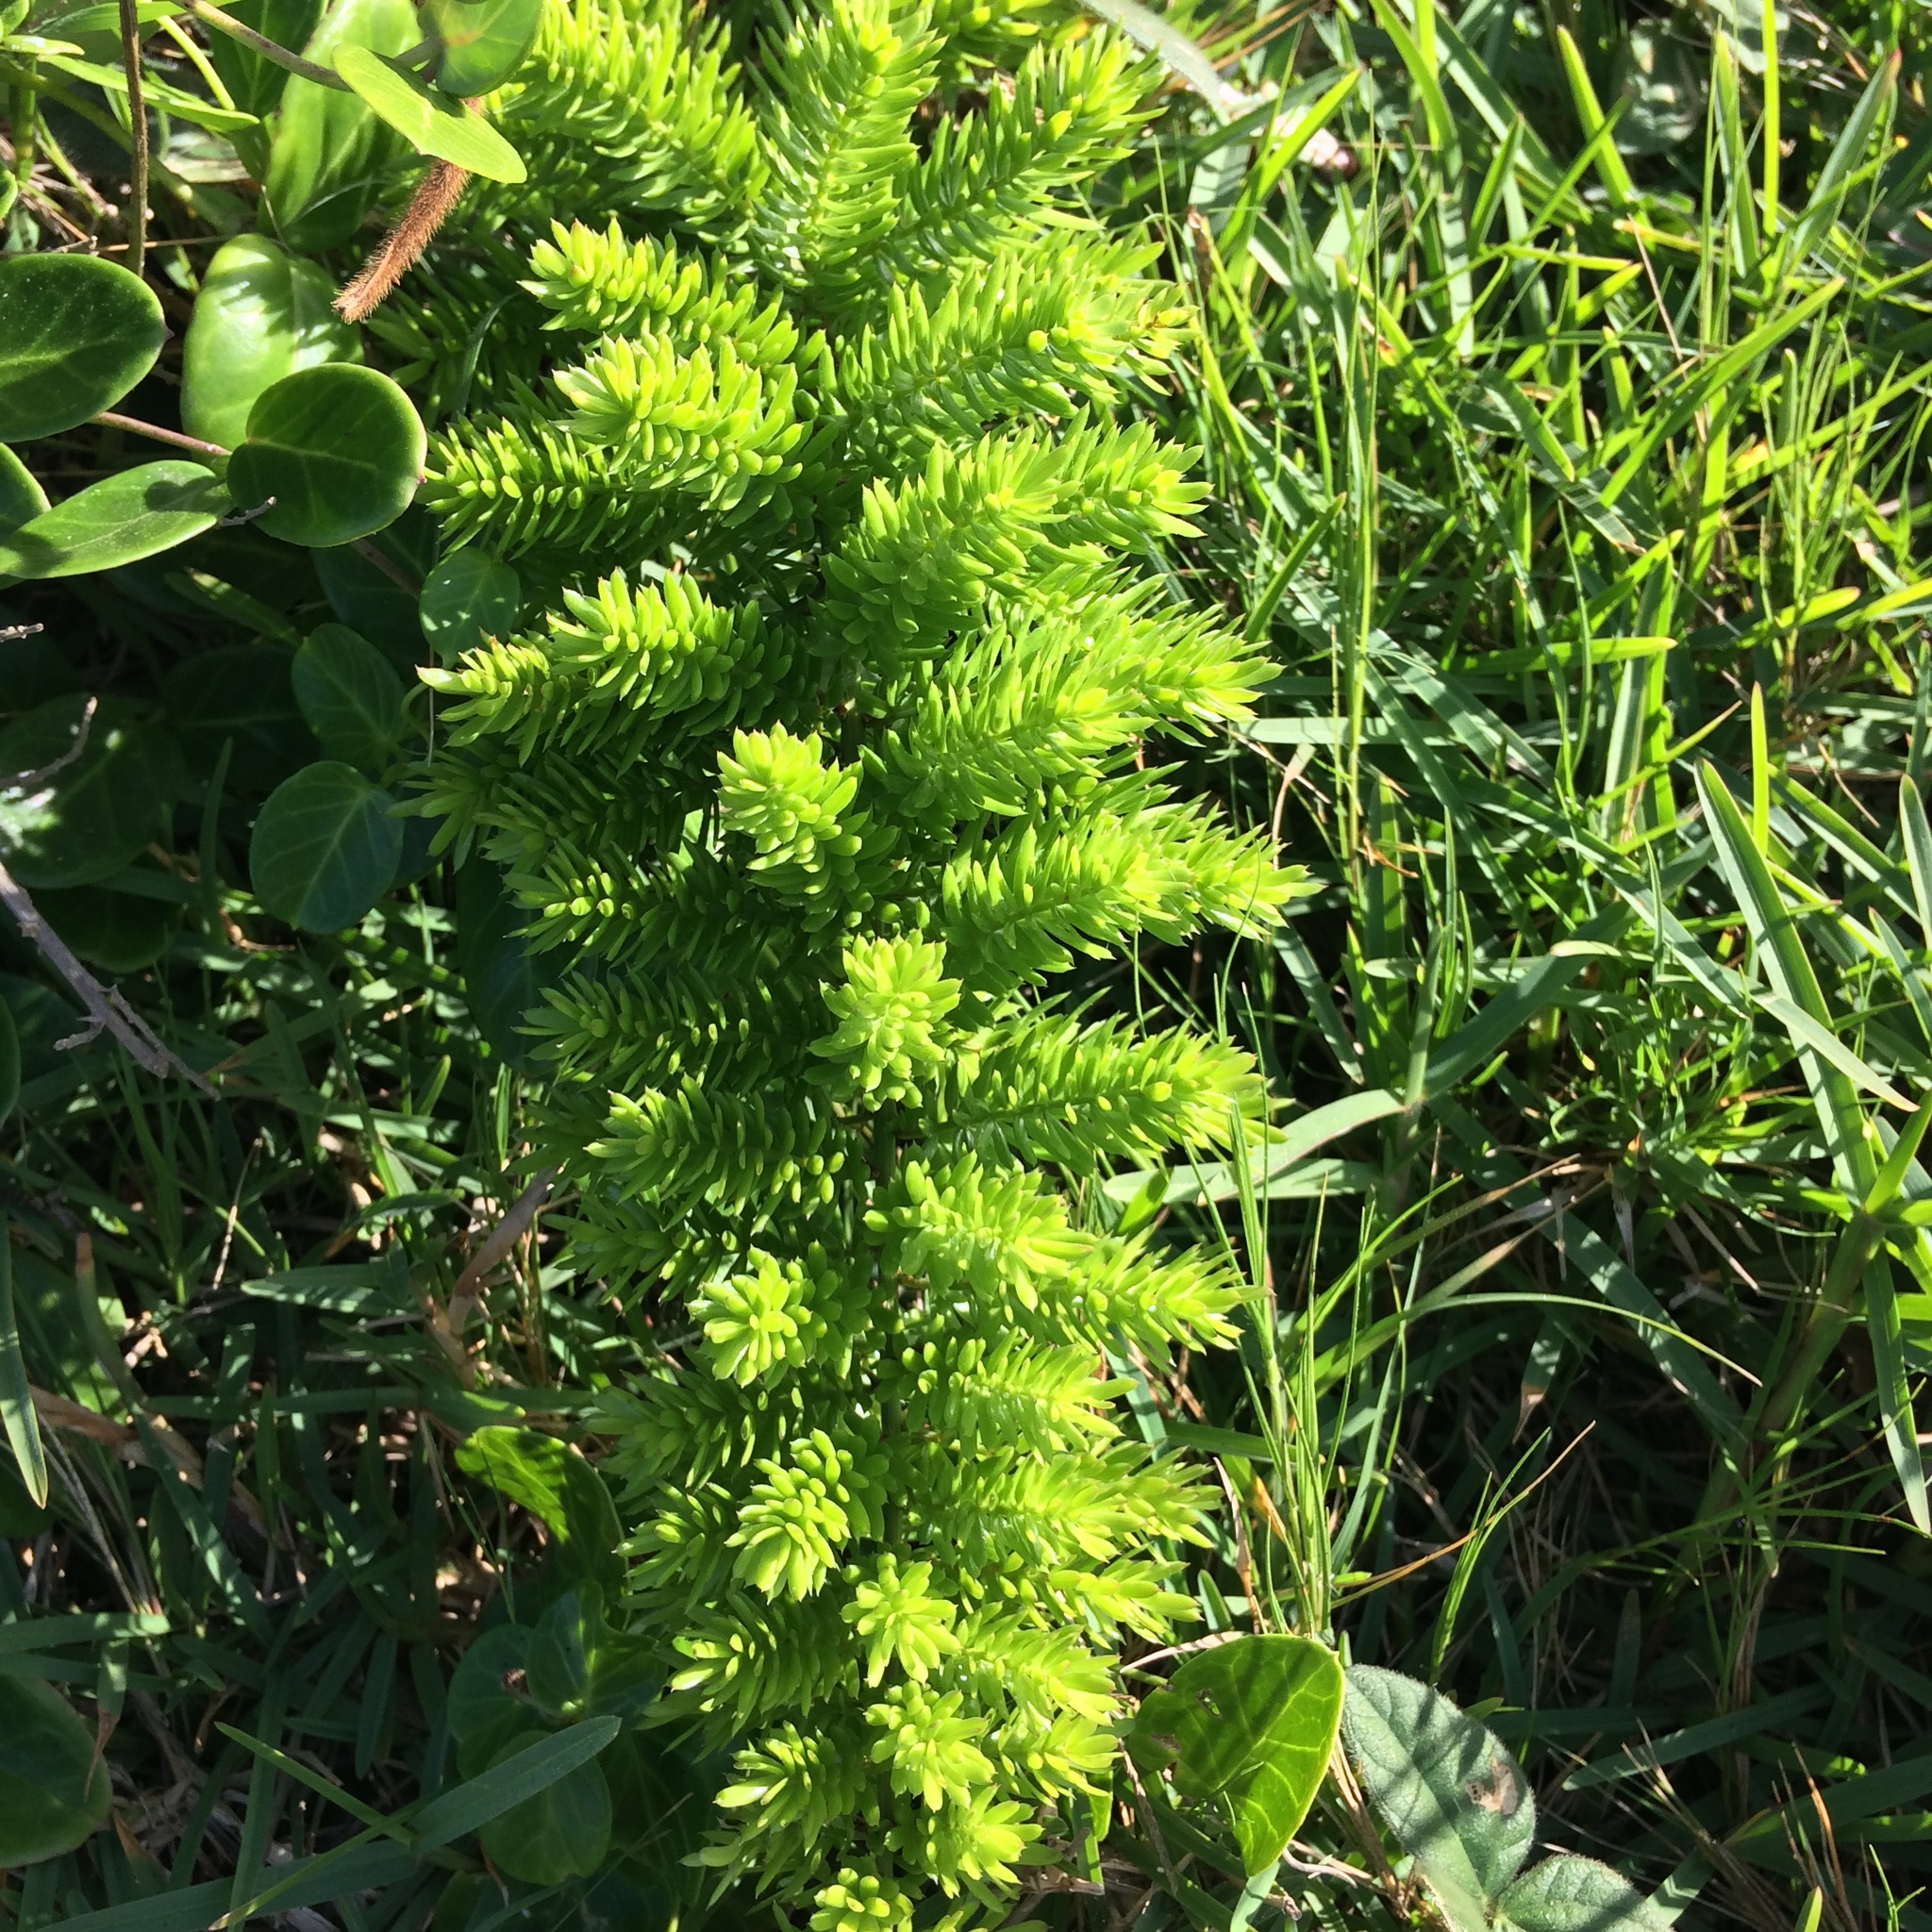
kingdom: Plantae
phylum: Tracheophyta
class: Liliopsida
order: Asparagales
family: Asparagaceae
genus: Asparagus
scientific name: Asparagus densiflorus
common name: Asparagus fern
